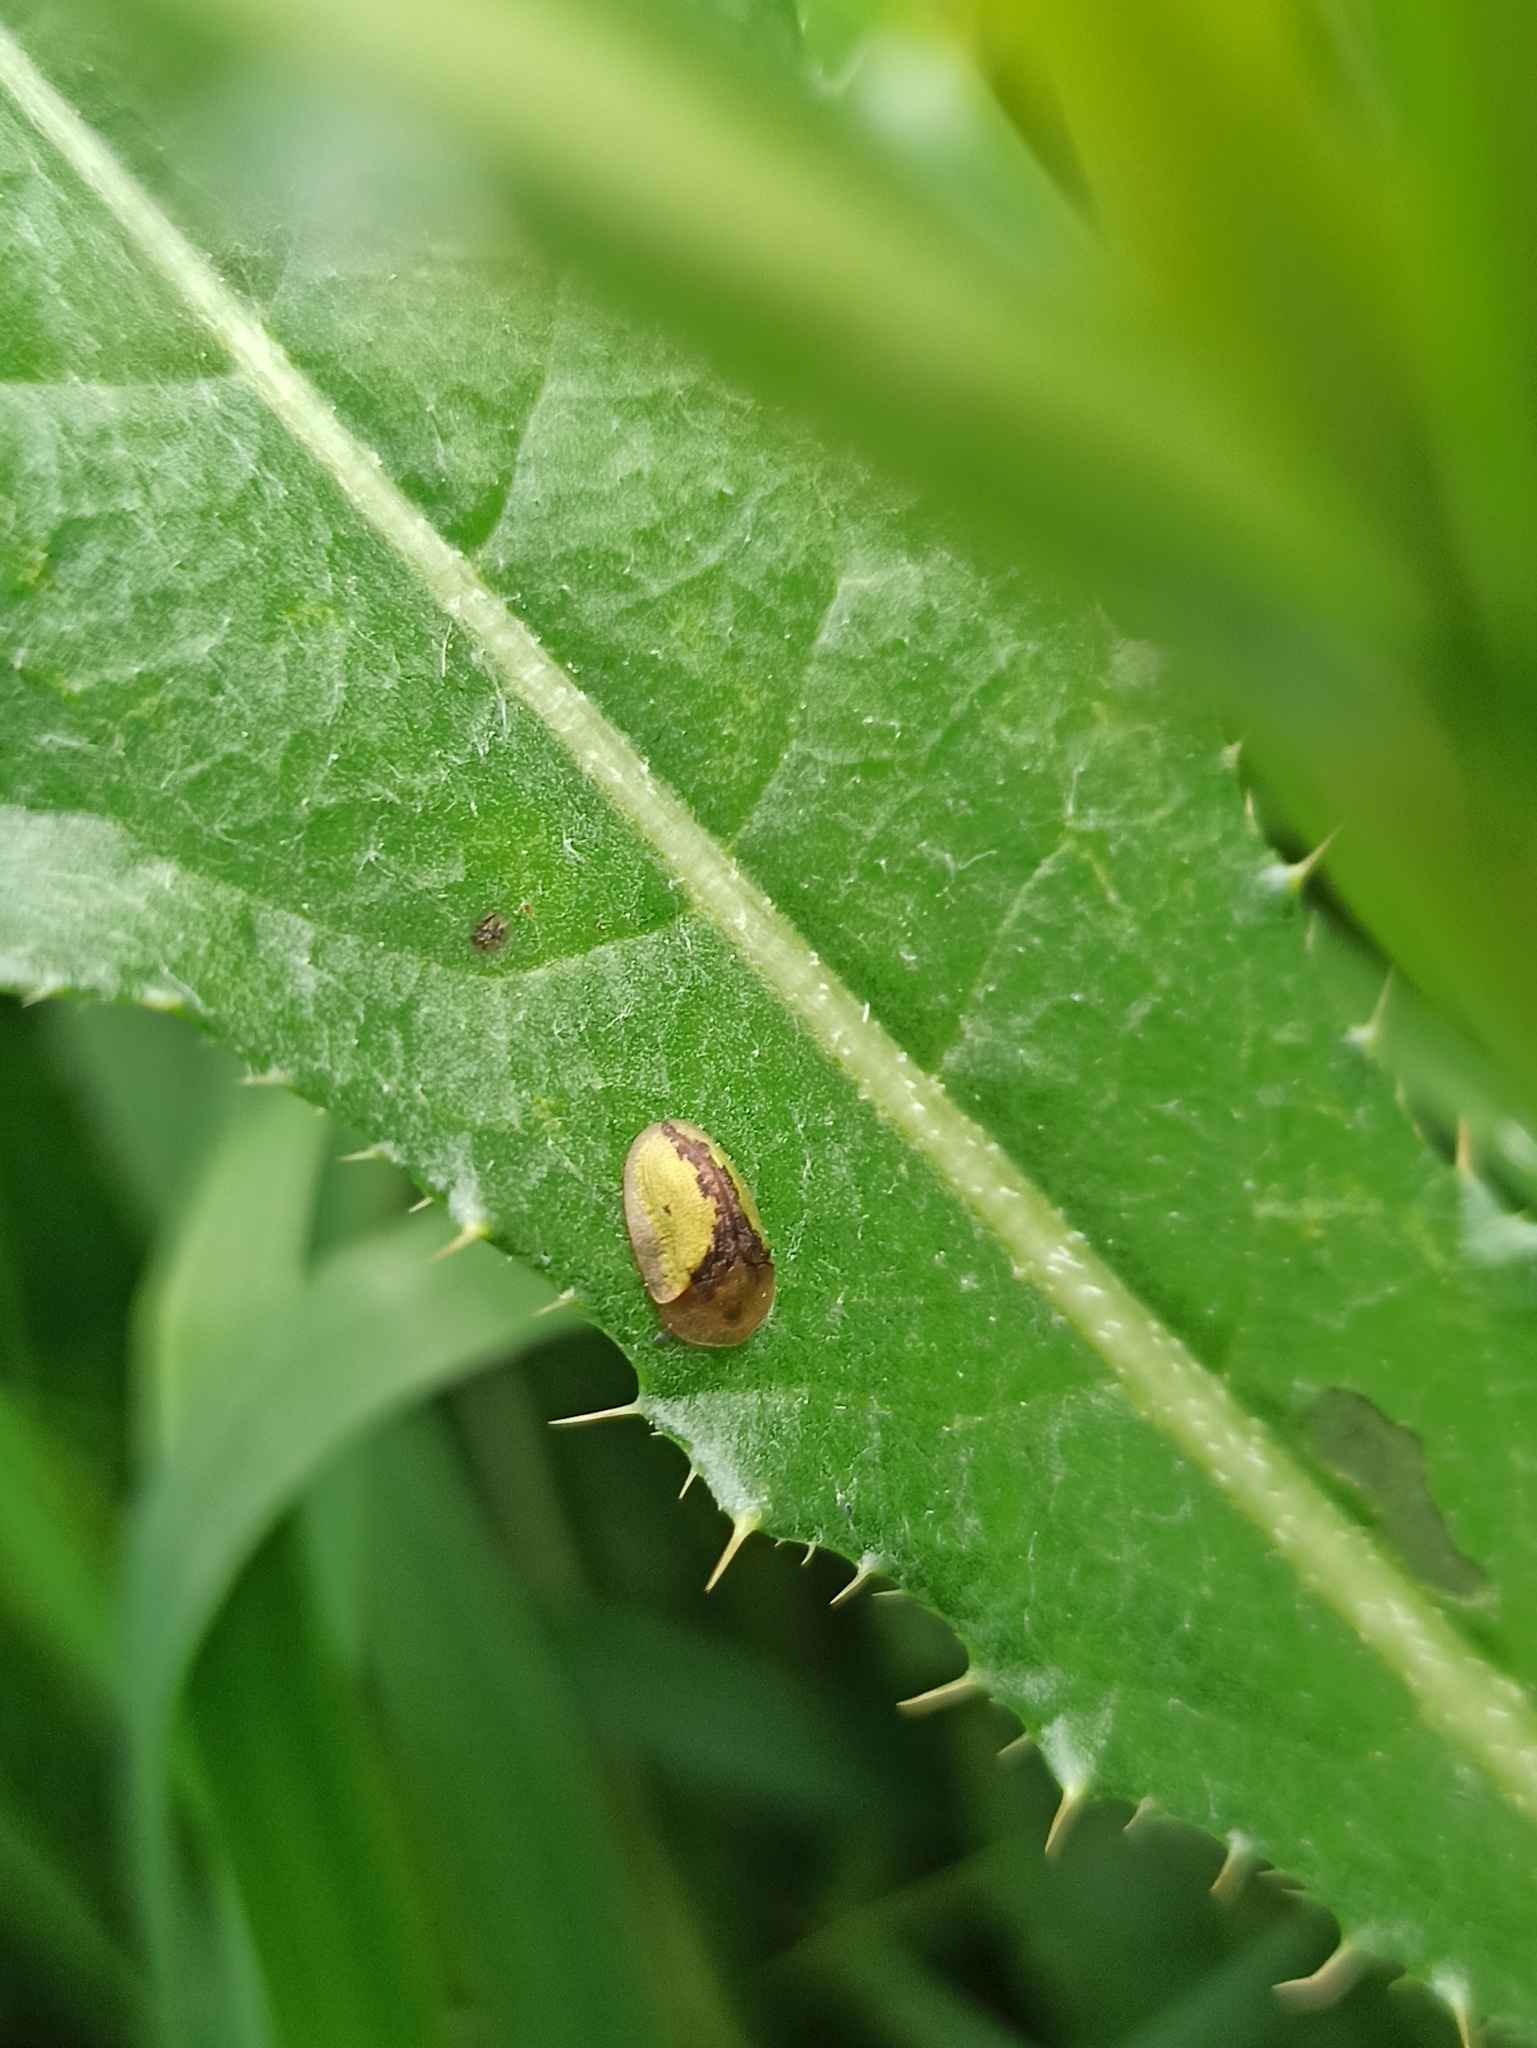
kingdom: Animalia
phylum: Arthropoda
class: Insecta
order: Coleoptera
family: Chrysomelidae
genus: Cassida
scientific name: Cassida vibex
